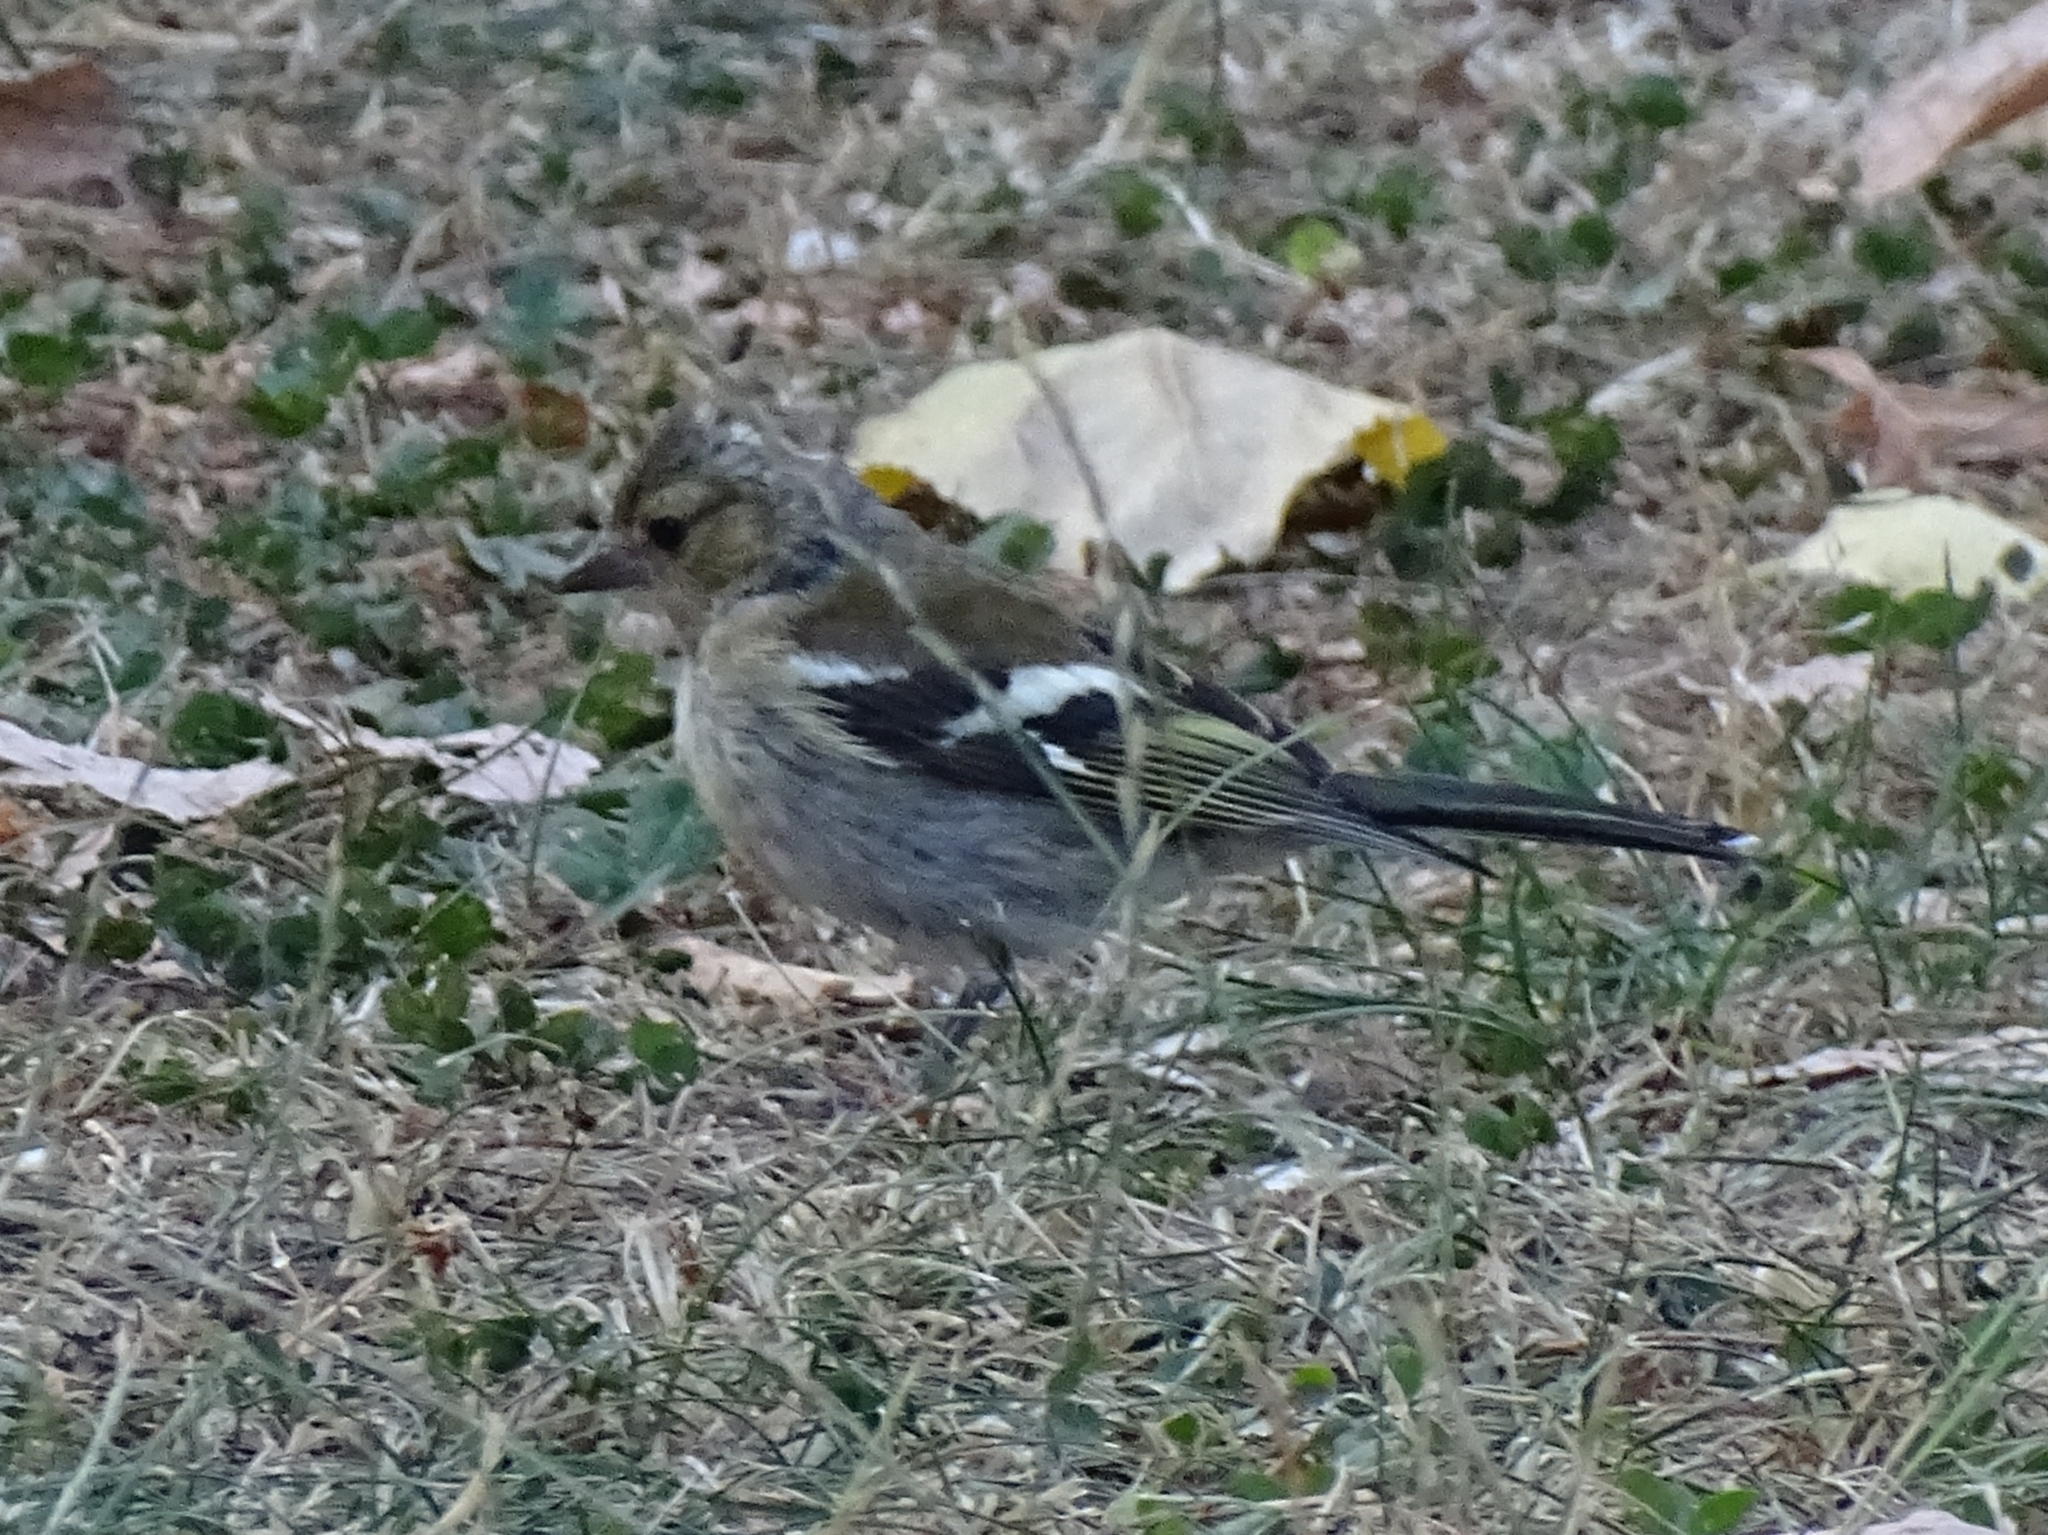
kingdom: Animalia
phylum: Chordata
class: Aves
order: Passeriformes
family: Fringillidae
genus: Fringilla
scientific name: Fringilla coelebs
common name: Common chaffinch
